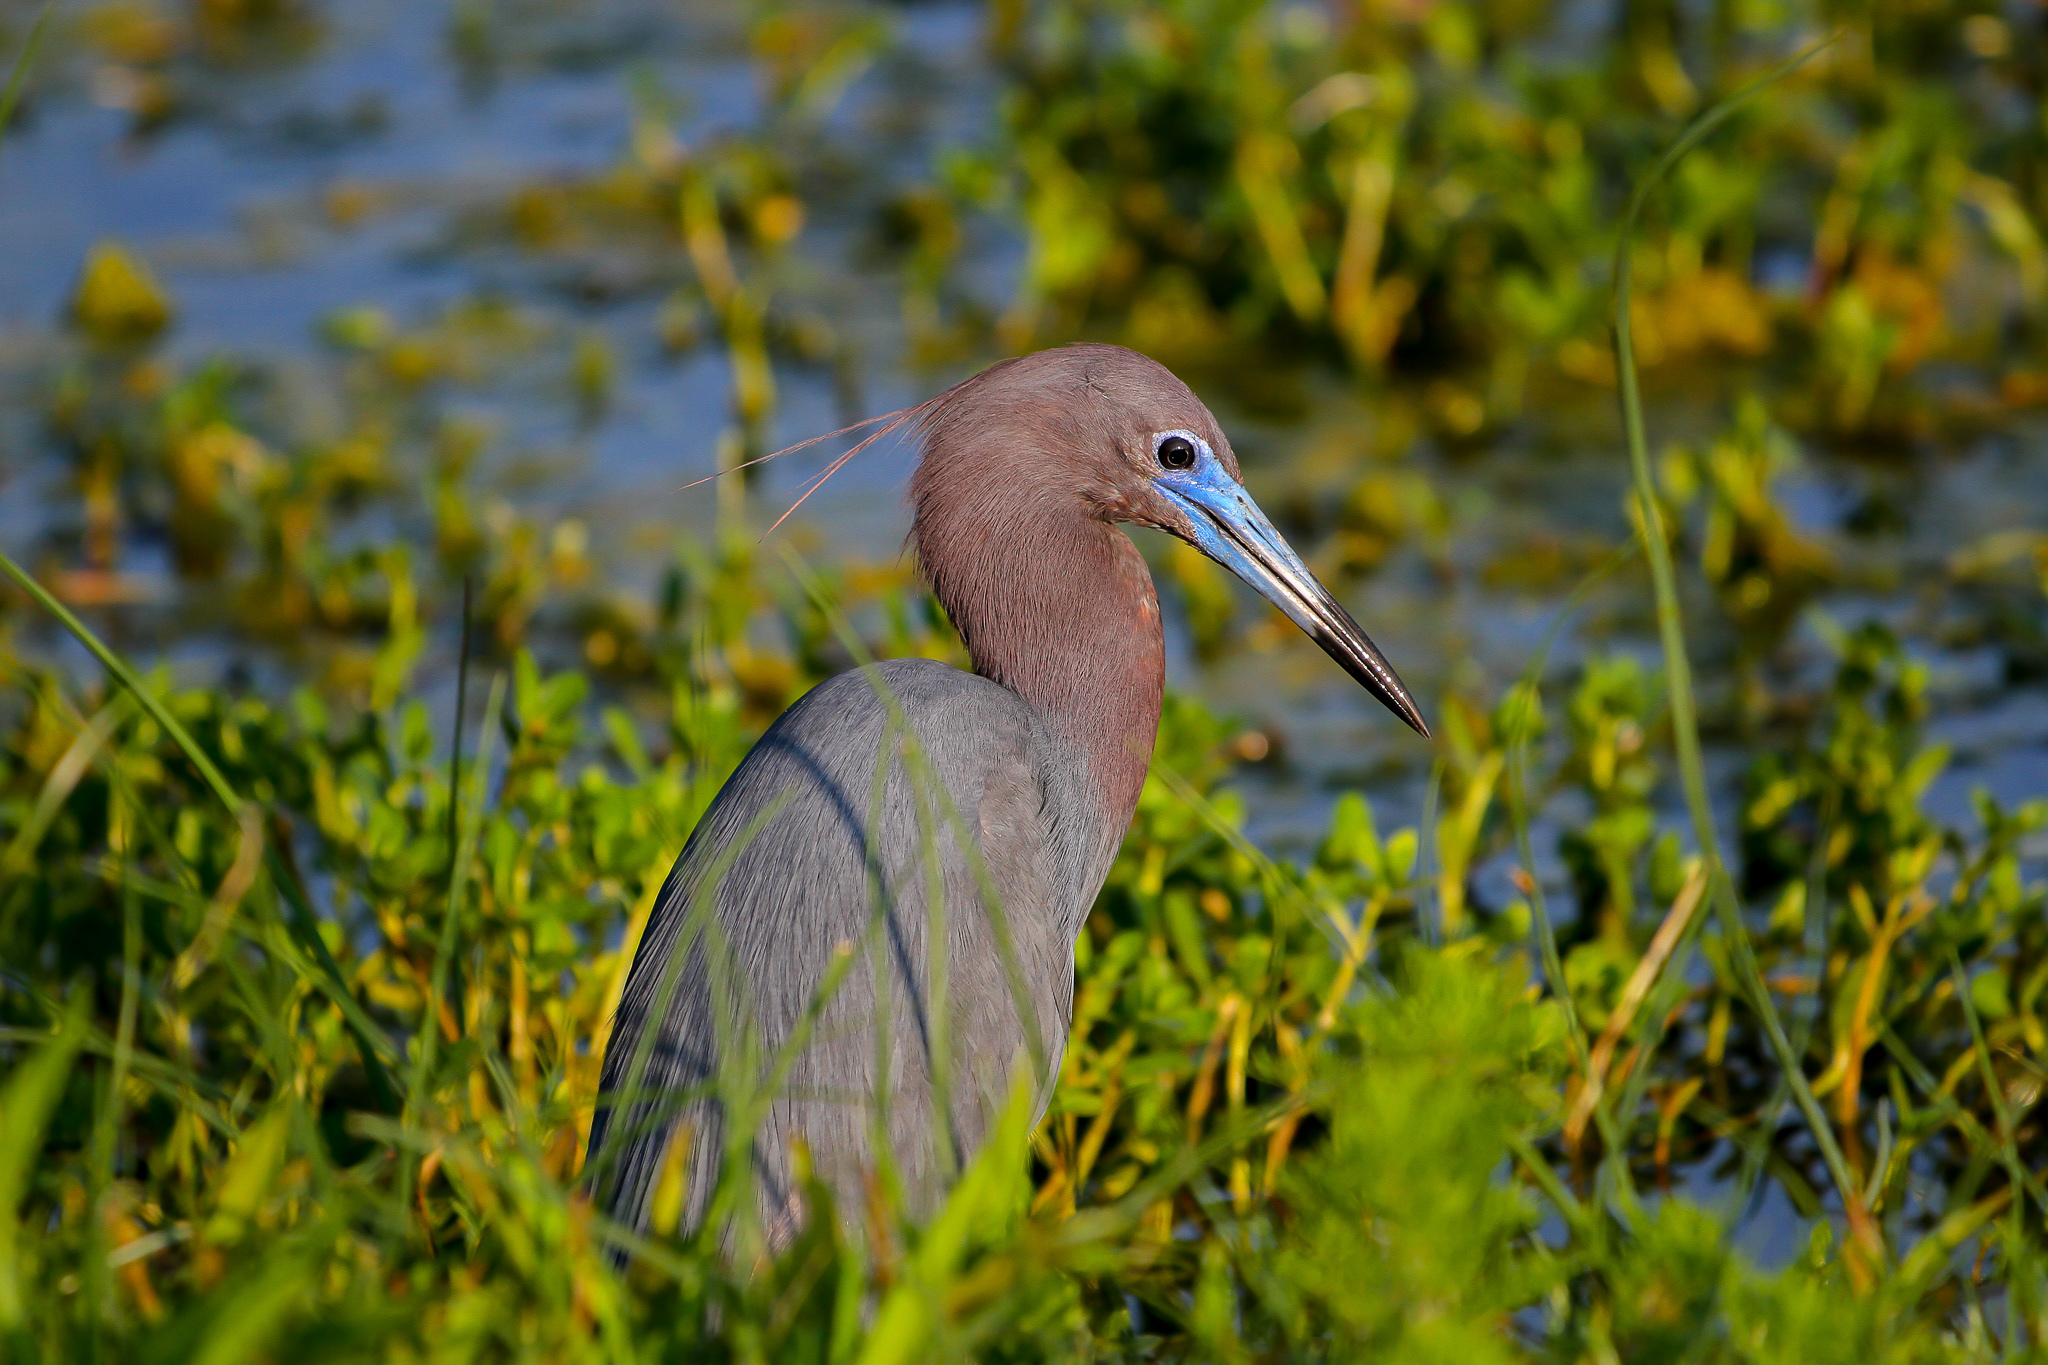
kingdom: Animalia
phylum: Chordata
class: Aves
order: Pelecaniformes
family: Ardeidae
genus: Egretta
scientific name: Egretta caerulea
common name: Little blue heron
